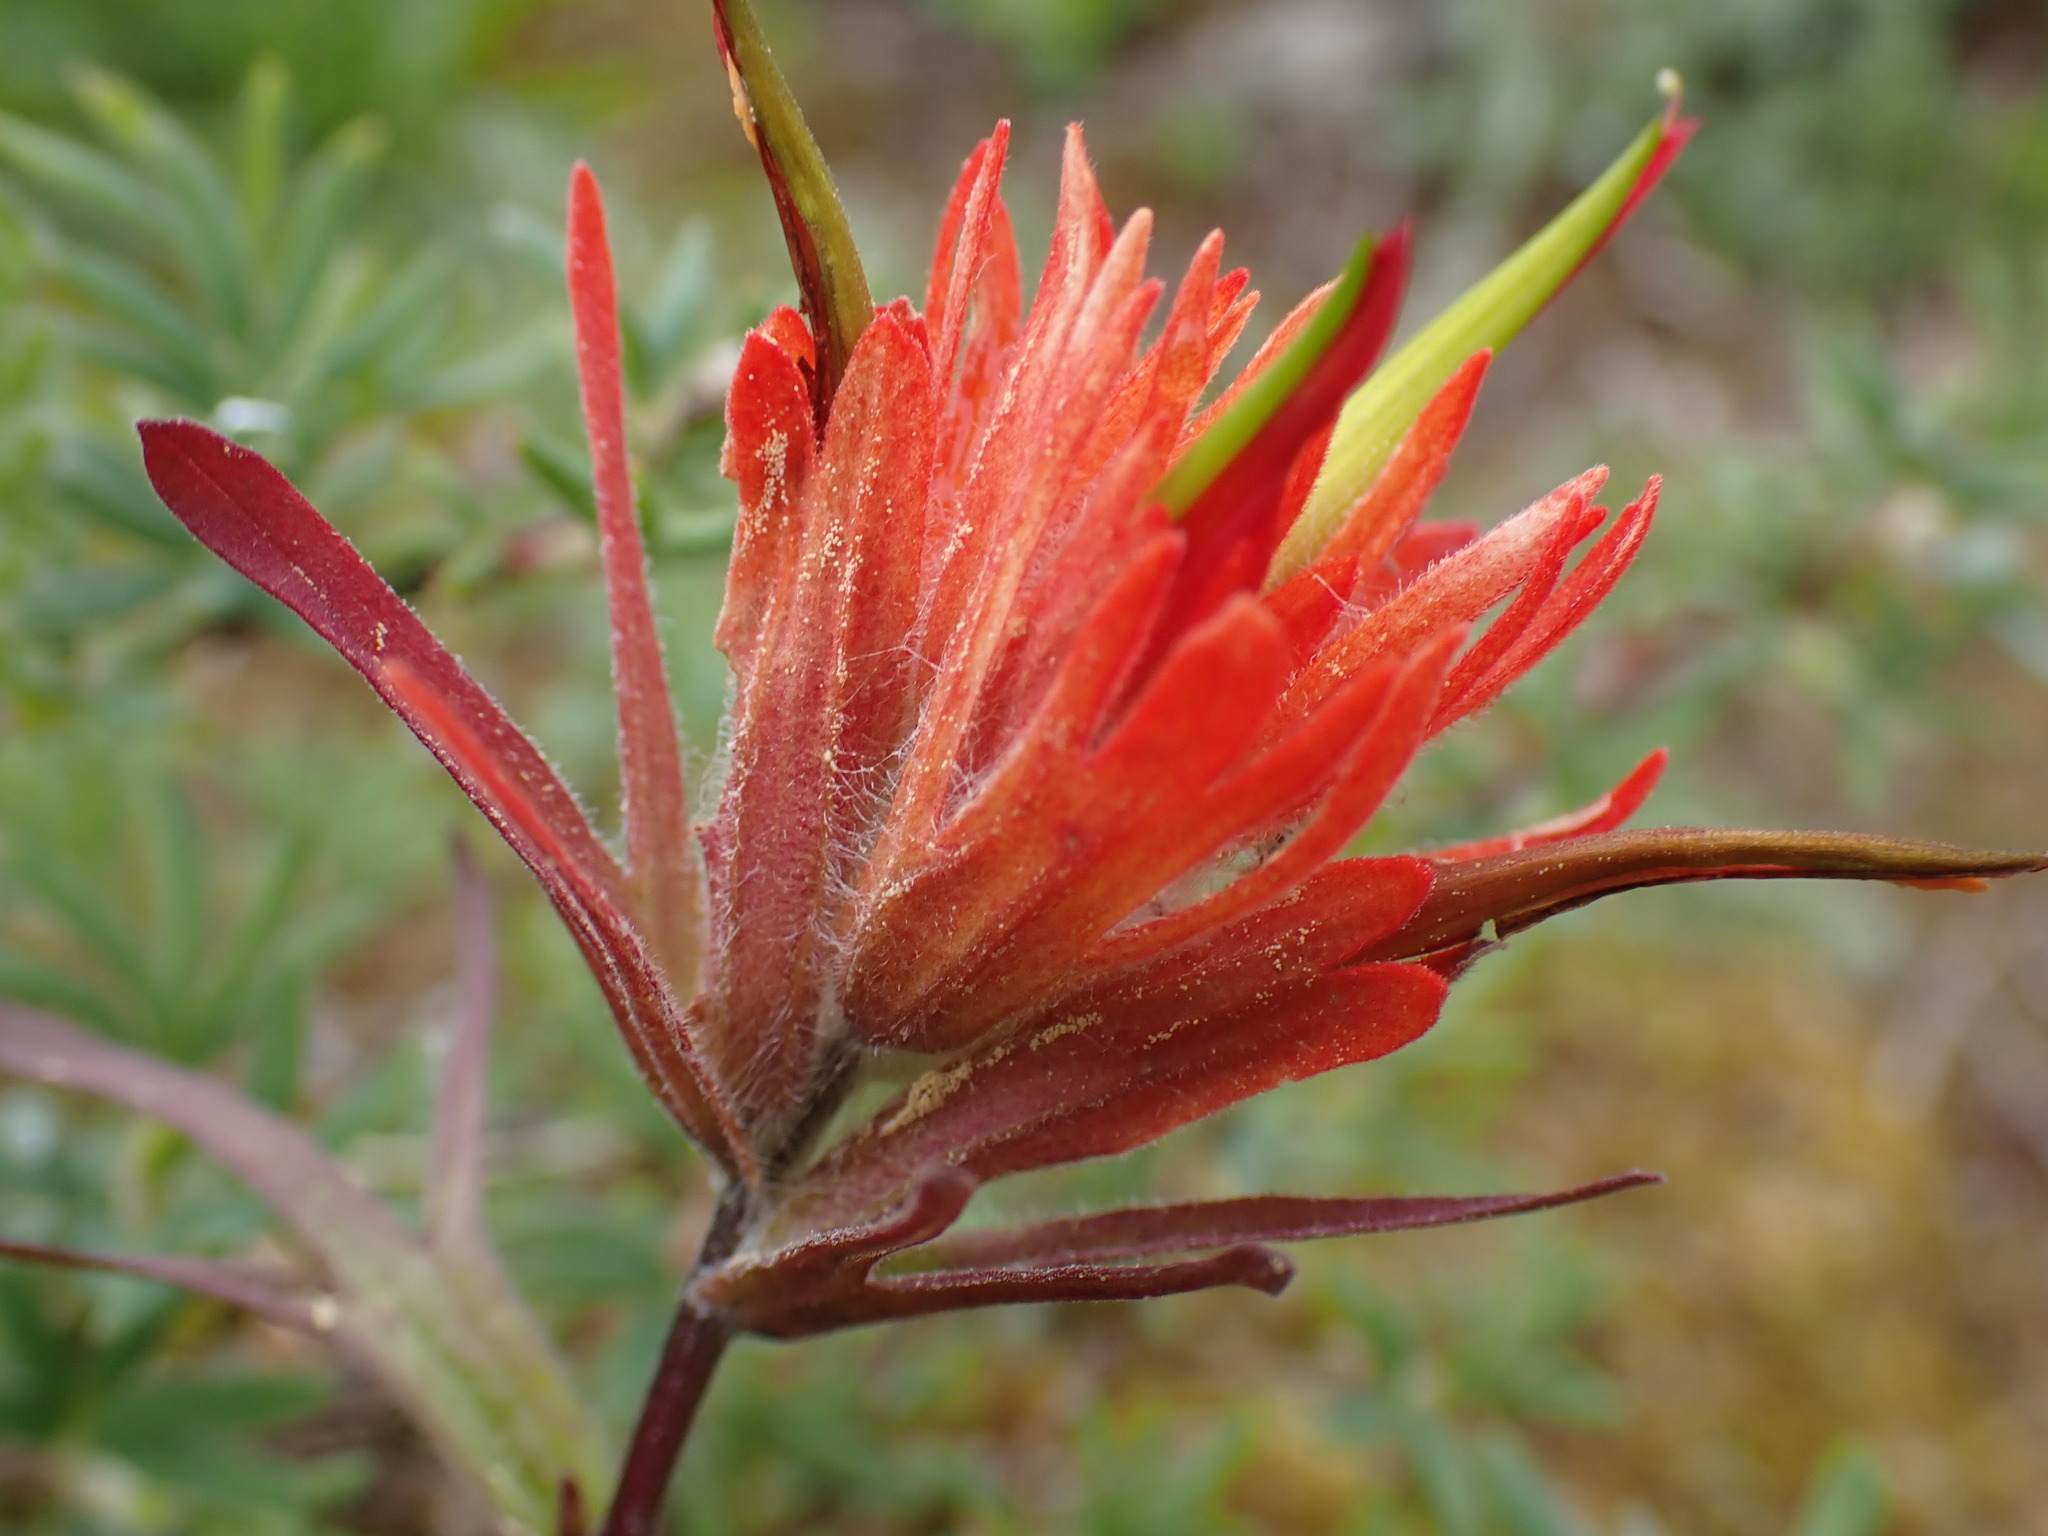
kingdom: Plantae
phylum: Tracheophyta
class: Magnoliopsida
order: Lamiales
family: Orobanchaceae
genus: Castilleja
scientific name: Castilleja miniata
